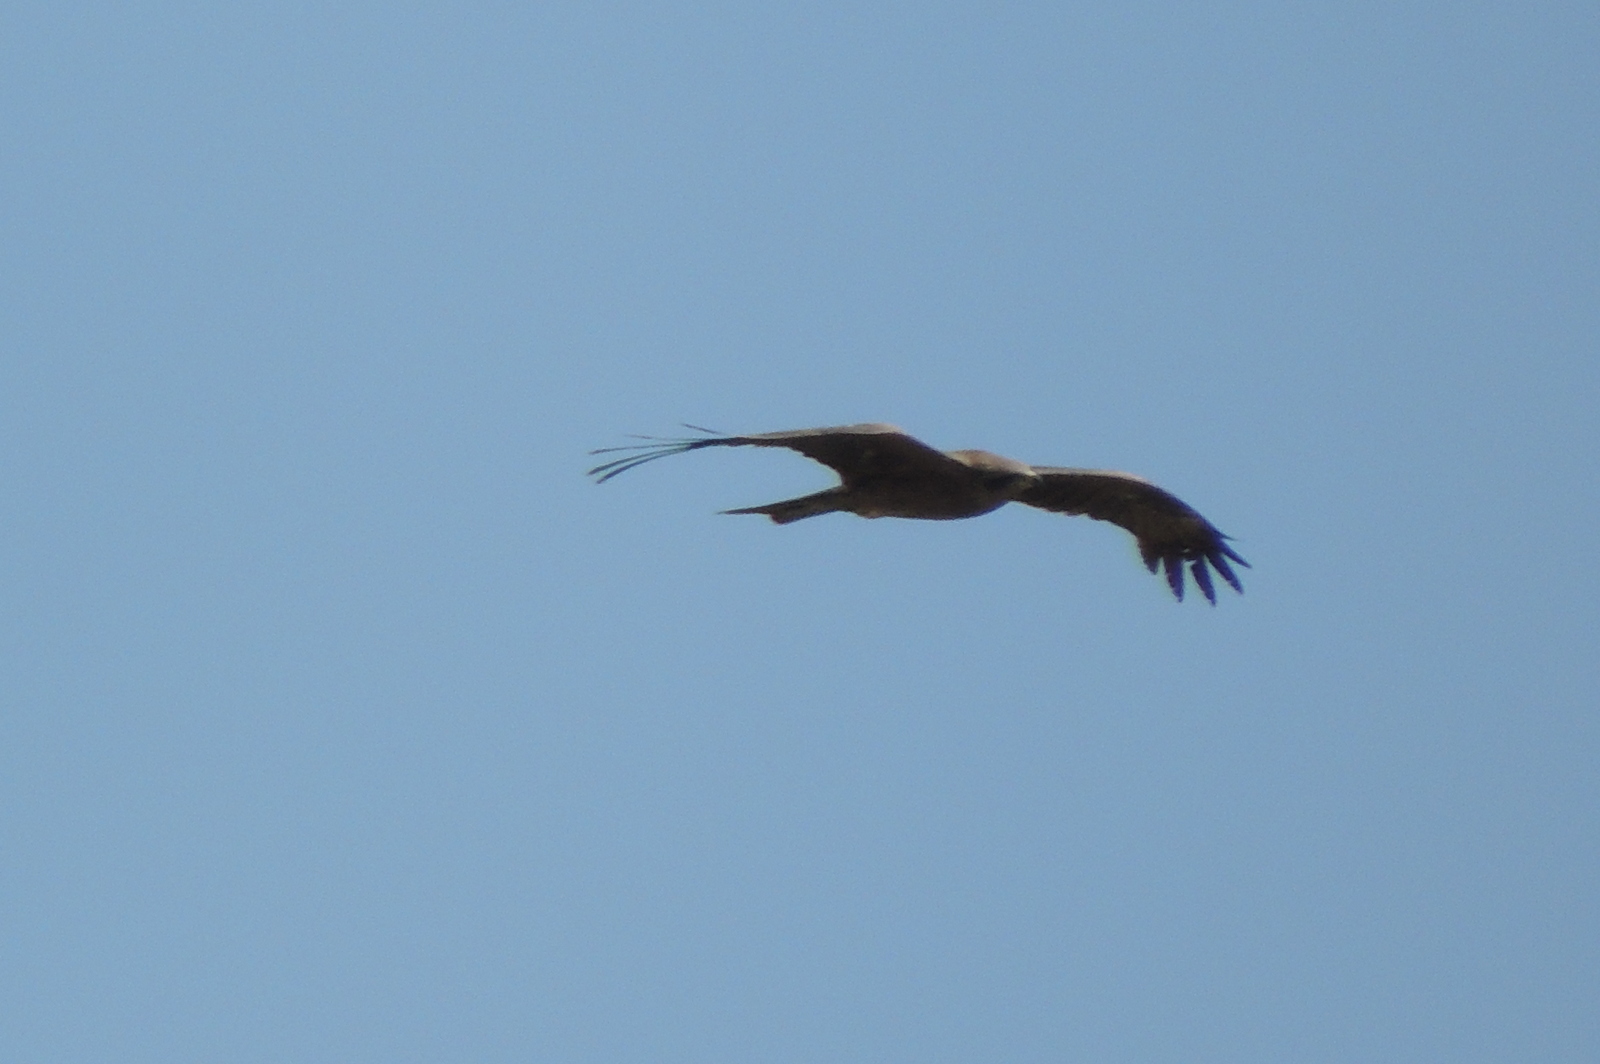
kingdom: Animalia
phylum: Chordata
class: Aves
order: Accipitriformes
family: Accipitridae
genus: Milvus
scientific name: Milvus migrans
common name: Black kite
